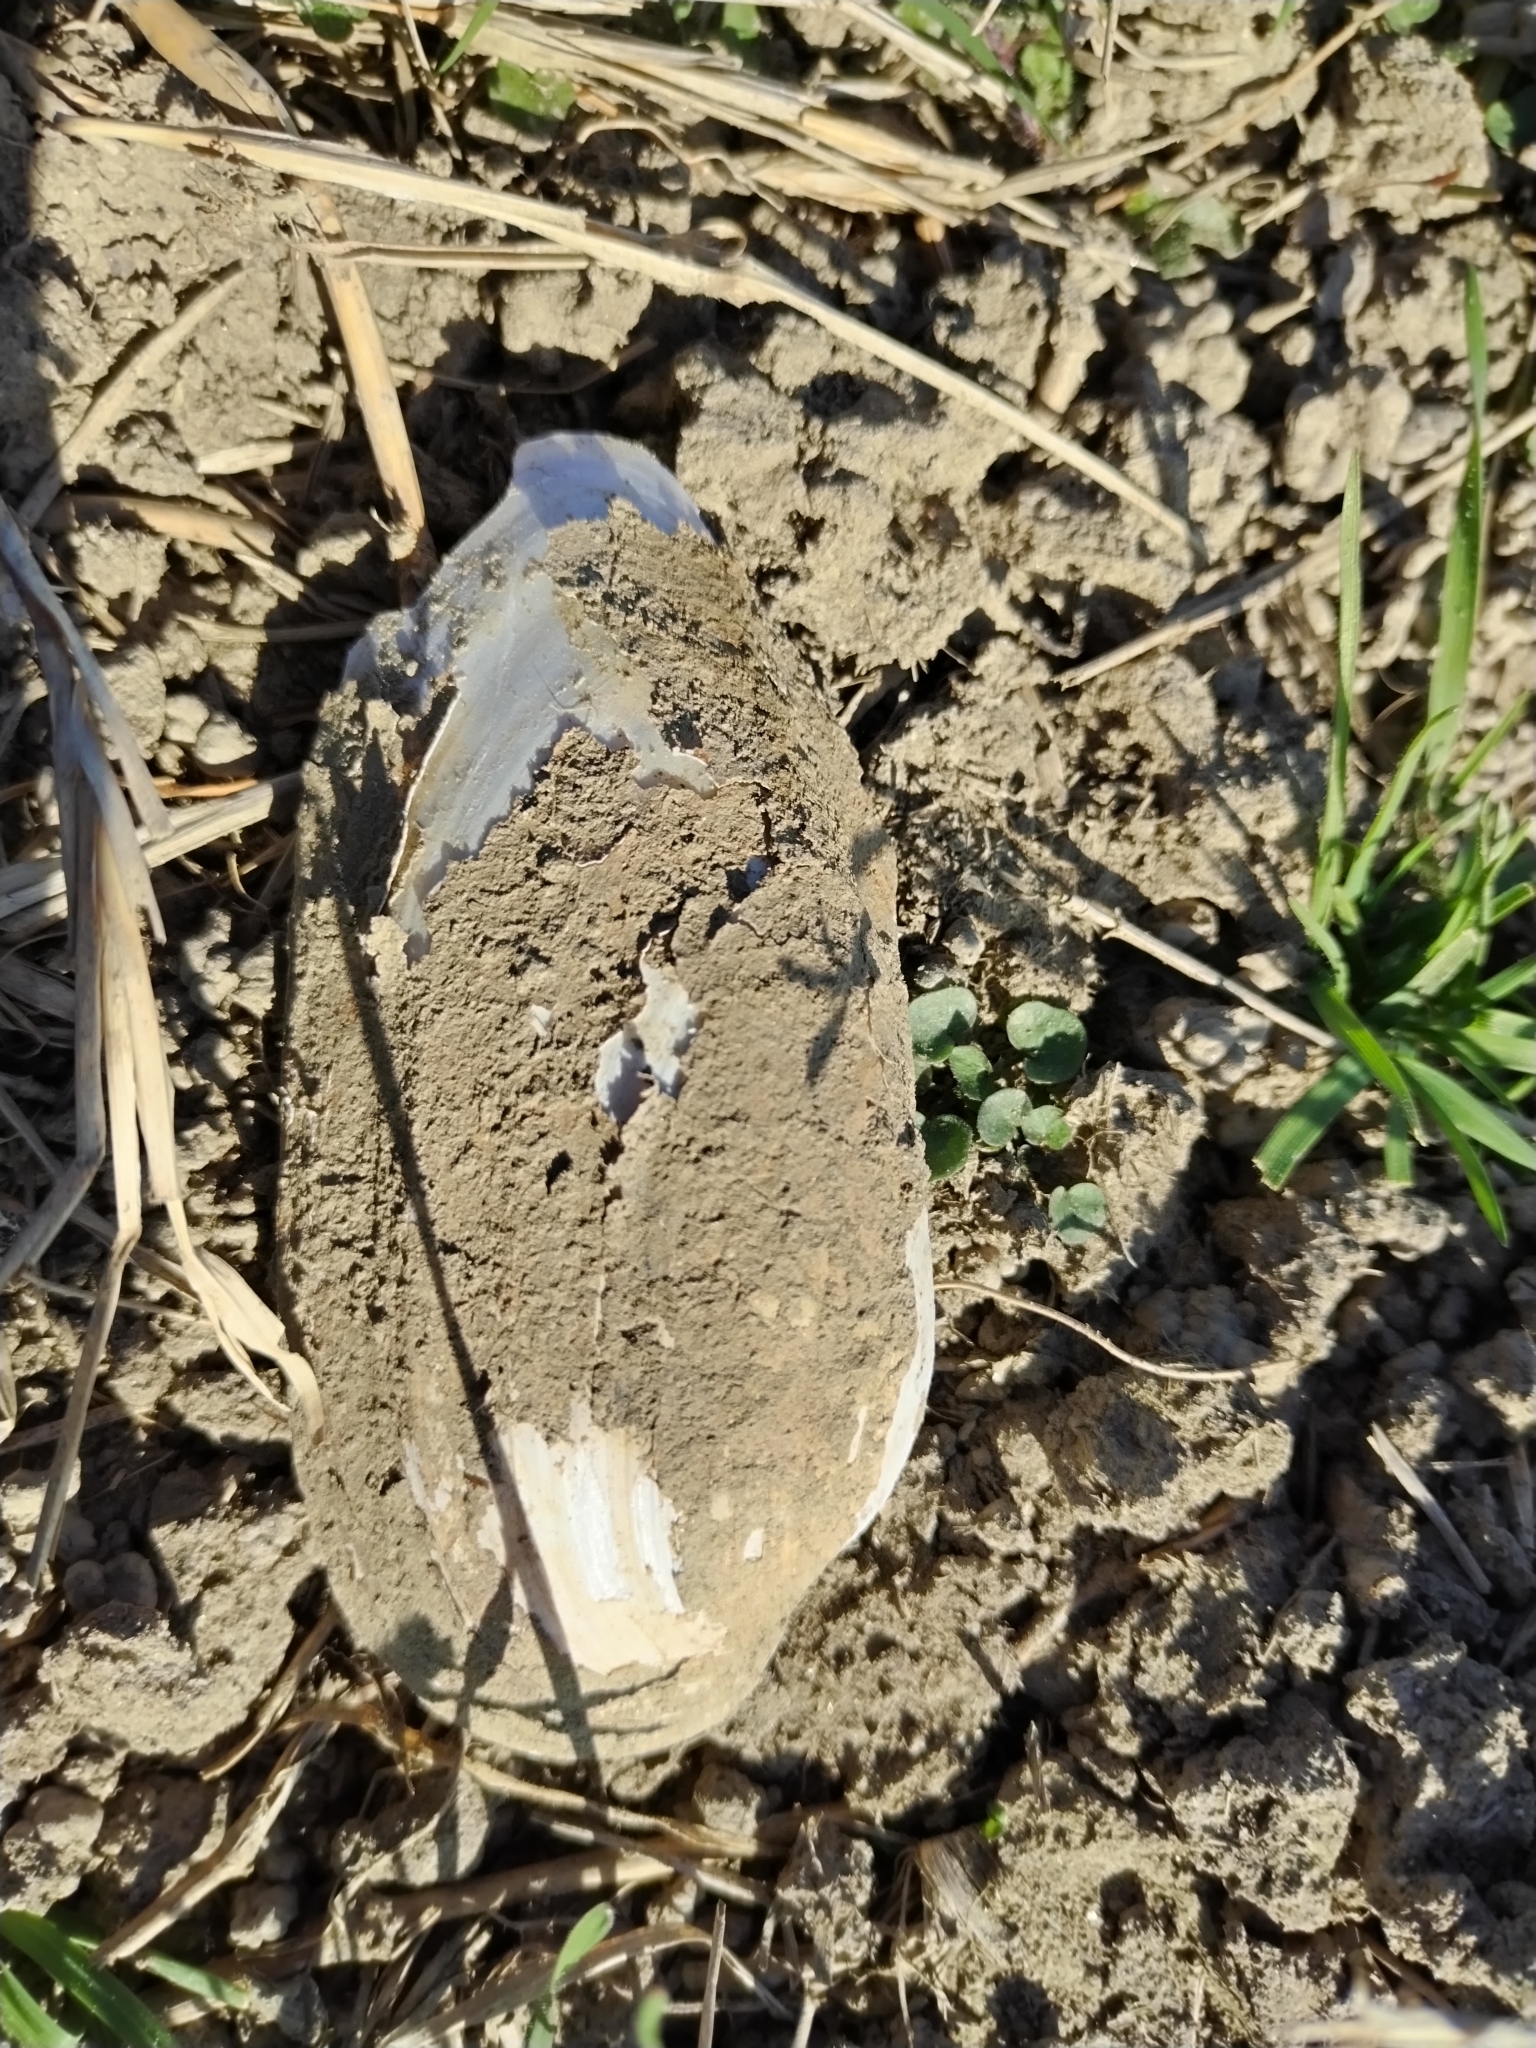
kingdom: Animalia
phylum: Mollusca
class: Bivalvia
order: Unionida
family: Unionidae
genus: Unio
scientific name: Unio elongatulus
